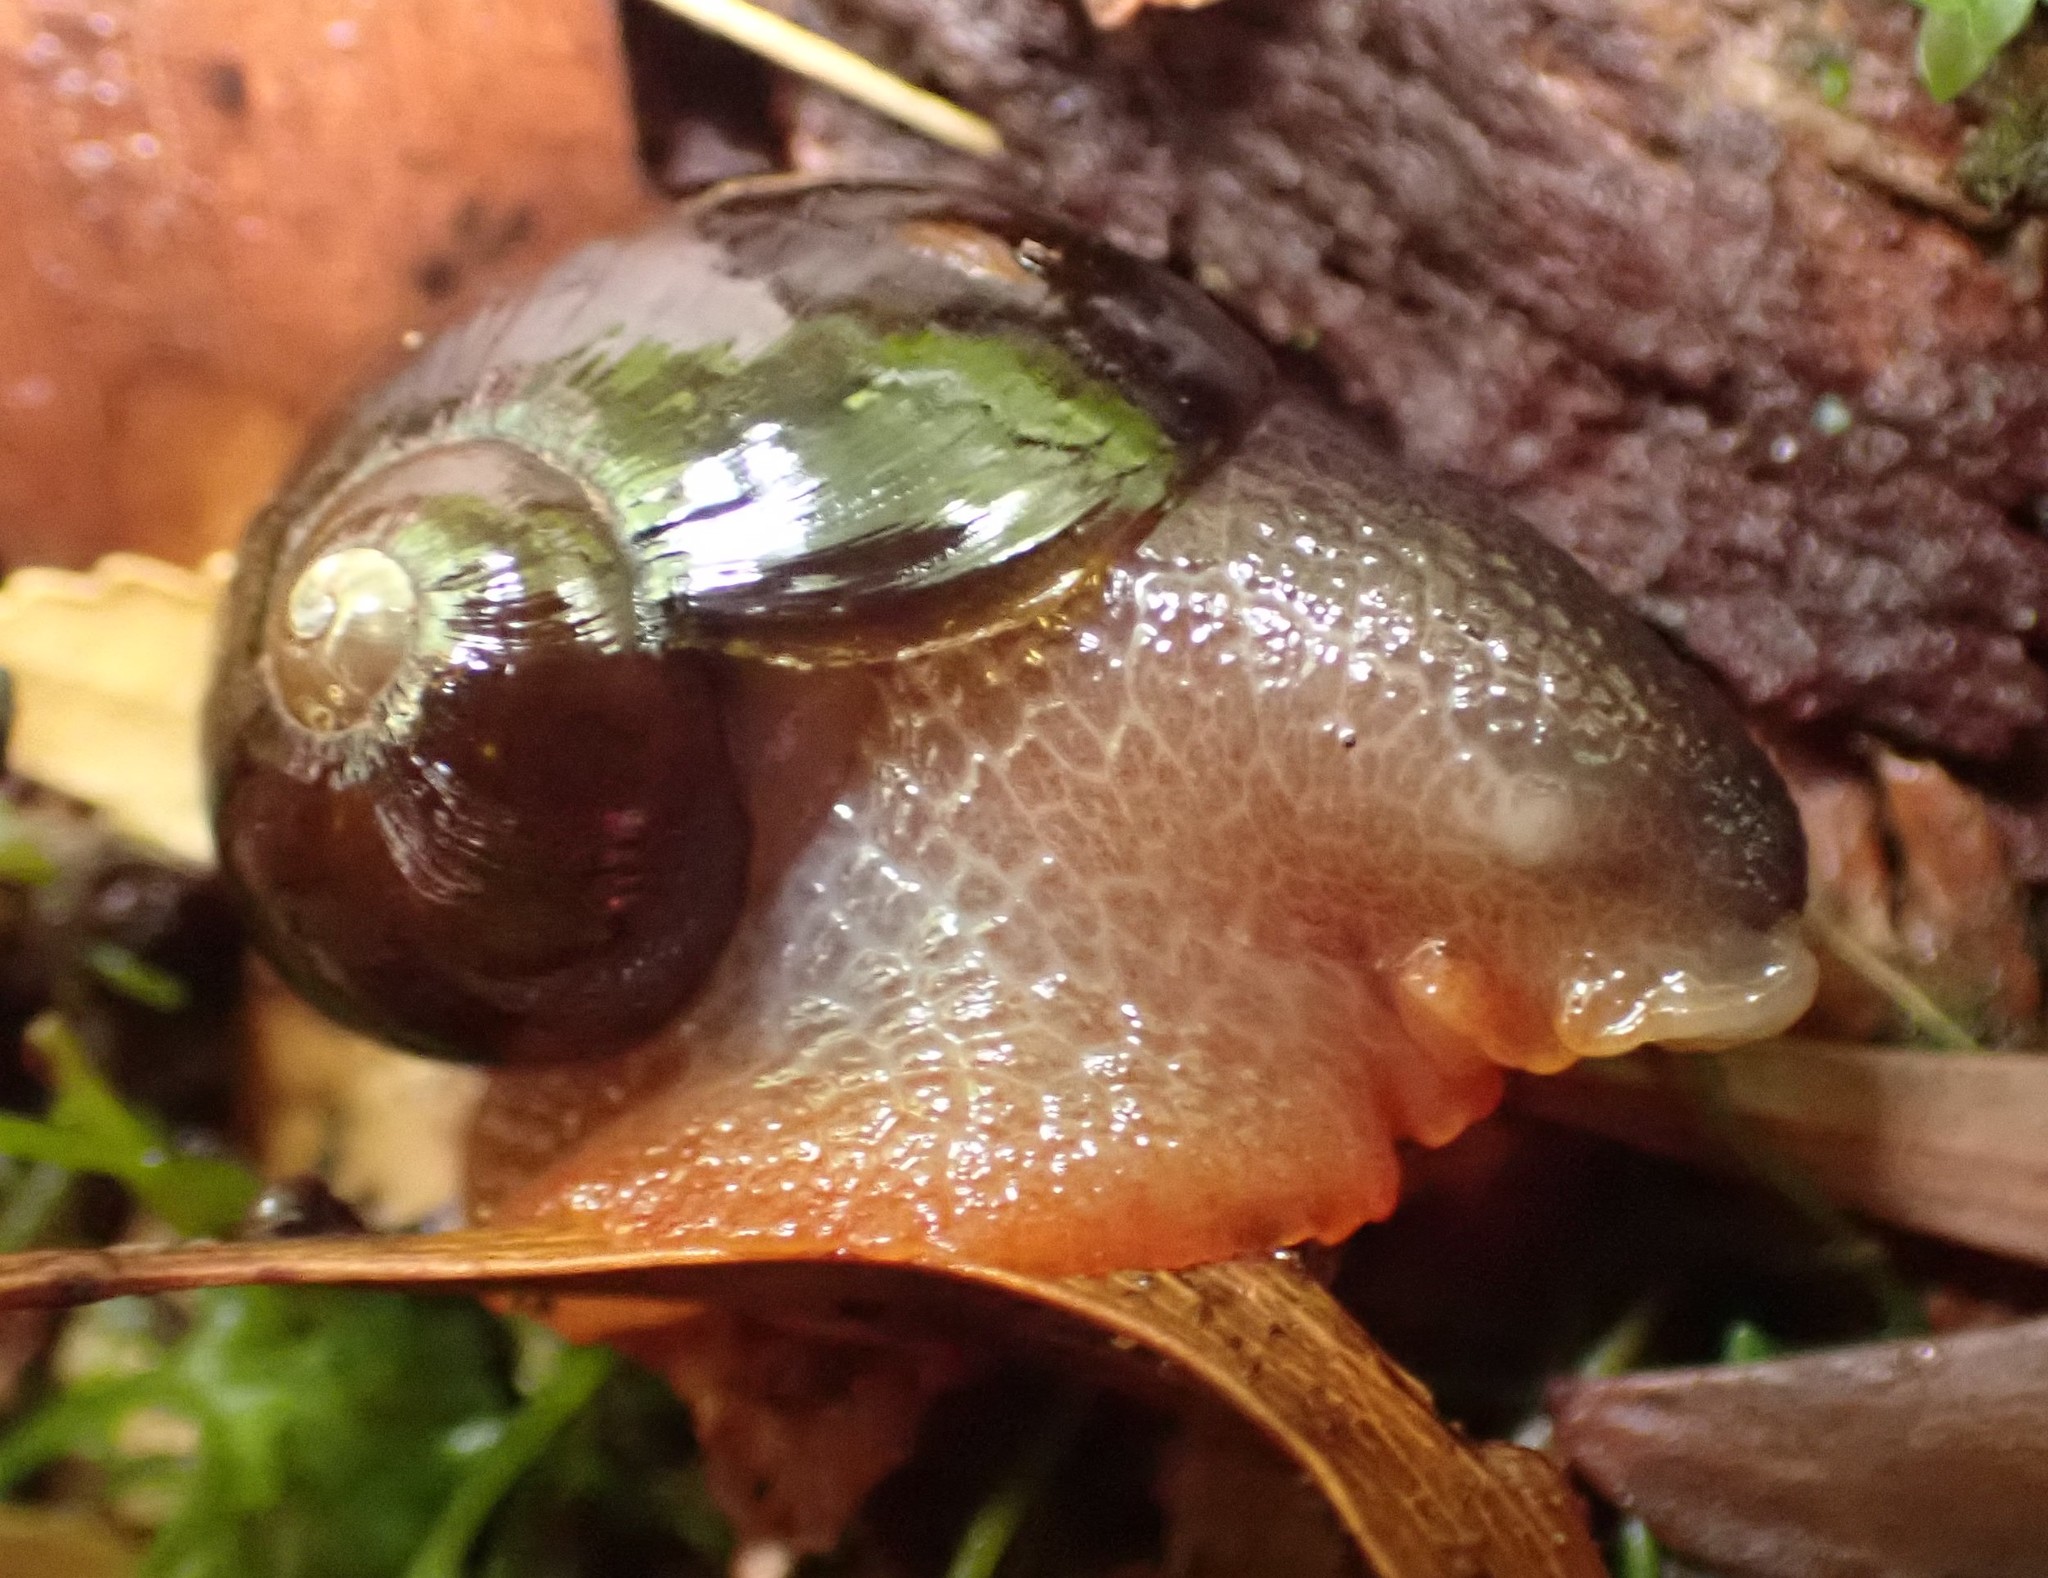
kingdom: Animalia
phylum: Mollusca
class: Gastropoda
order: Stylommatophora
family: Rhytididae
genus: Victaphanta
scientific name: Victaphanta milligani
